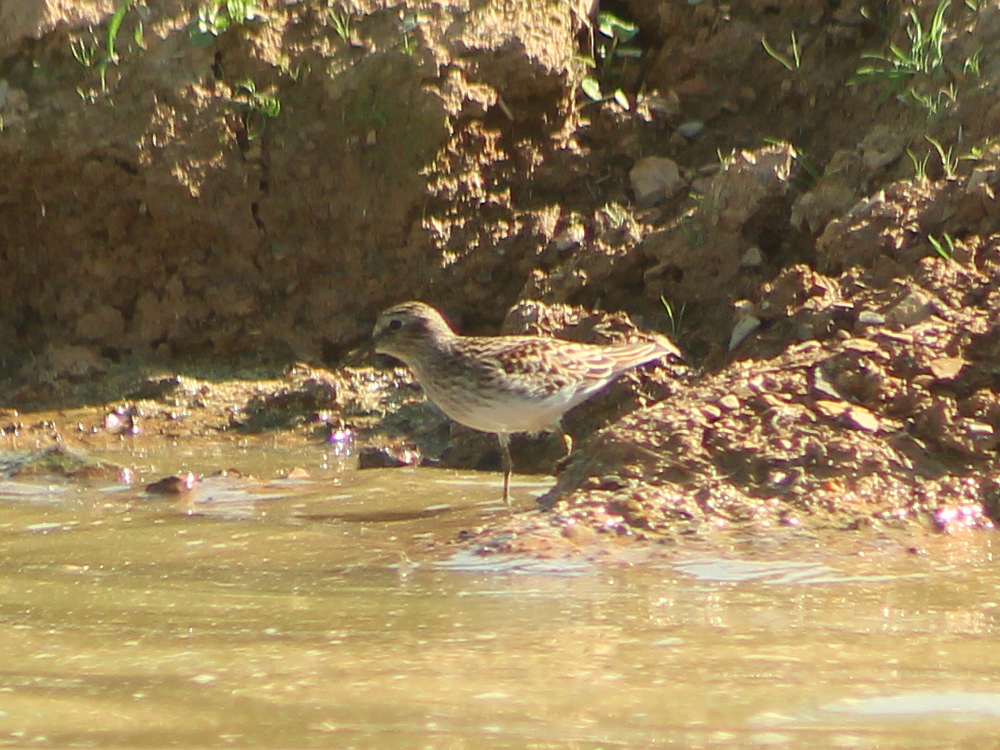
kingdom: Animalia
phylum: Chordata
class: Aves
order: Charadriiformes
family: Scolopacidae
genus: Calidris
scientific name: Calidris minutilla
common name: Least sandpiper
